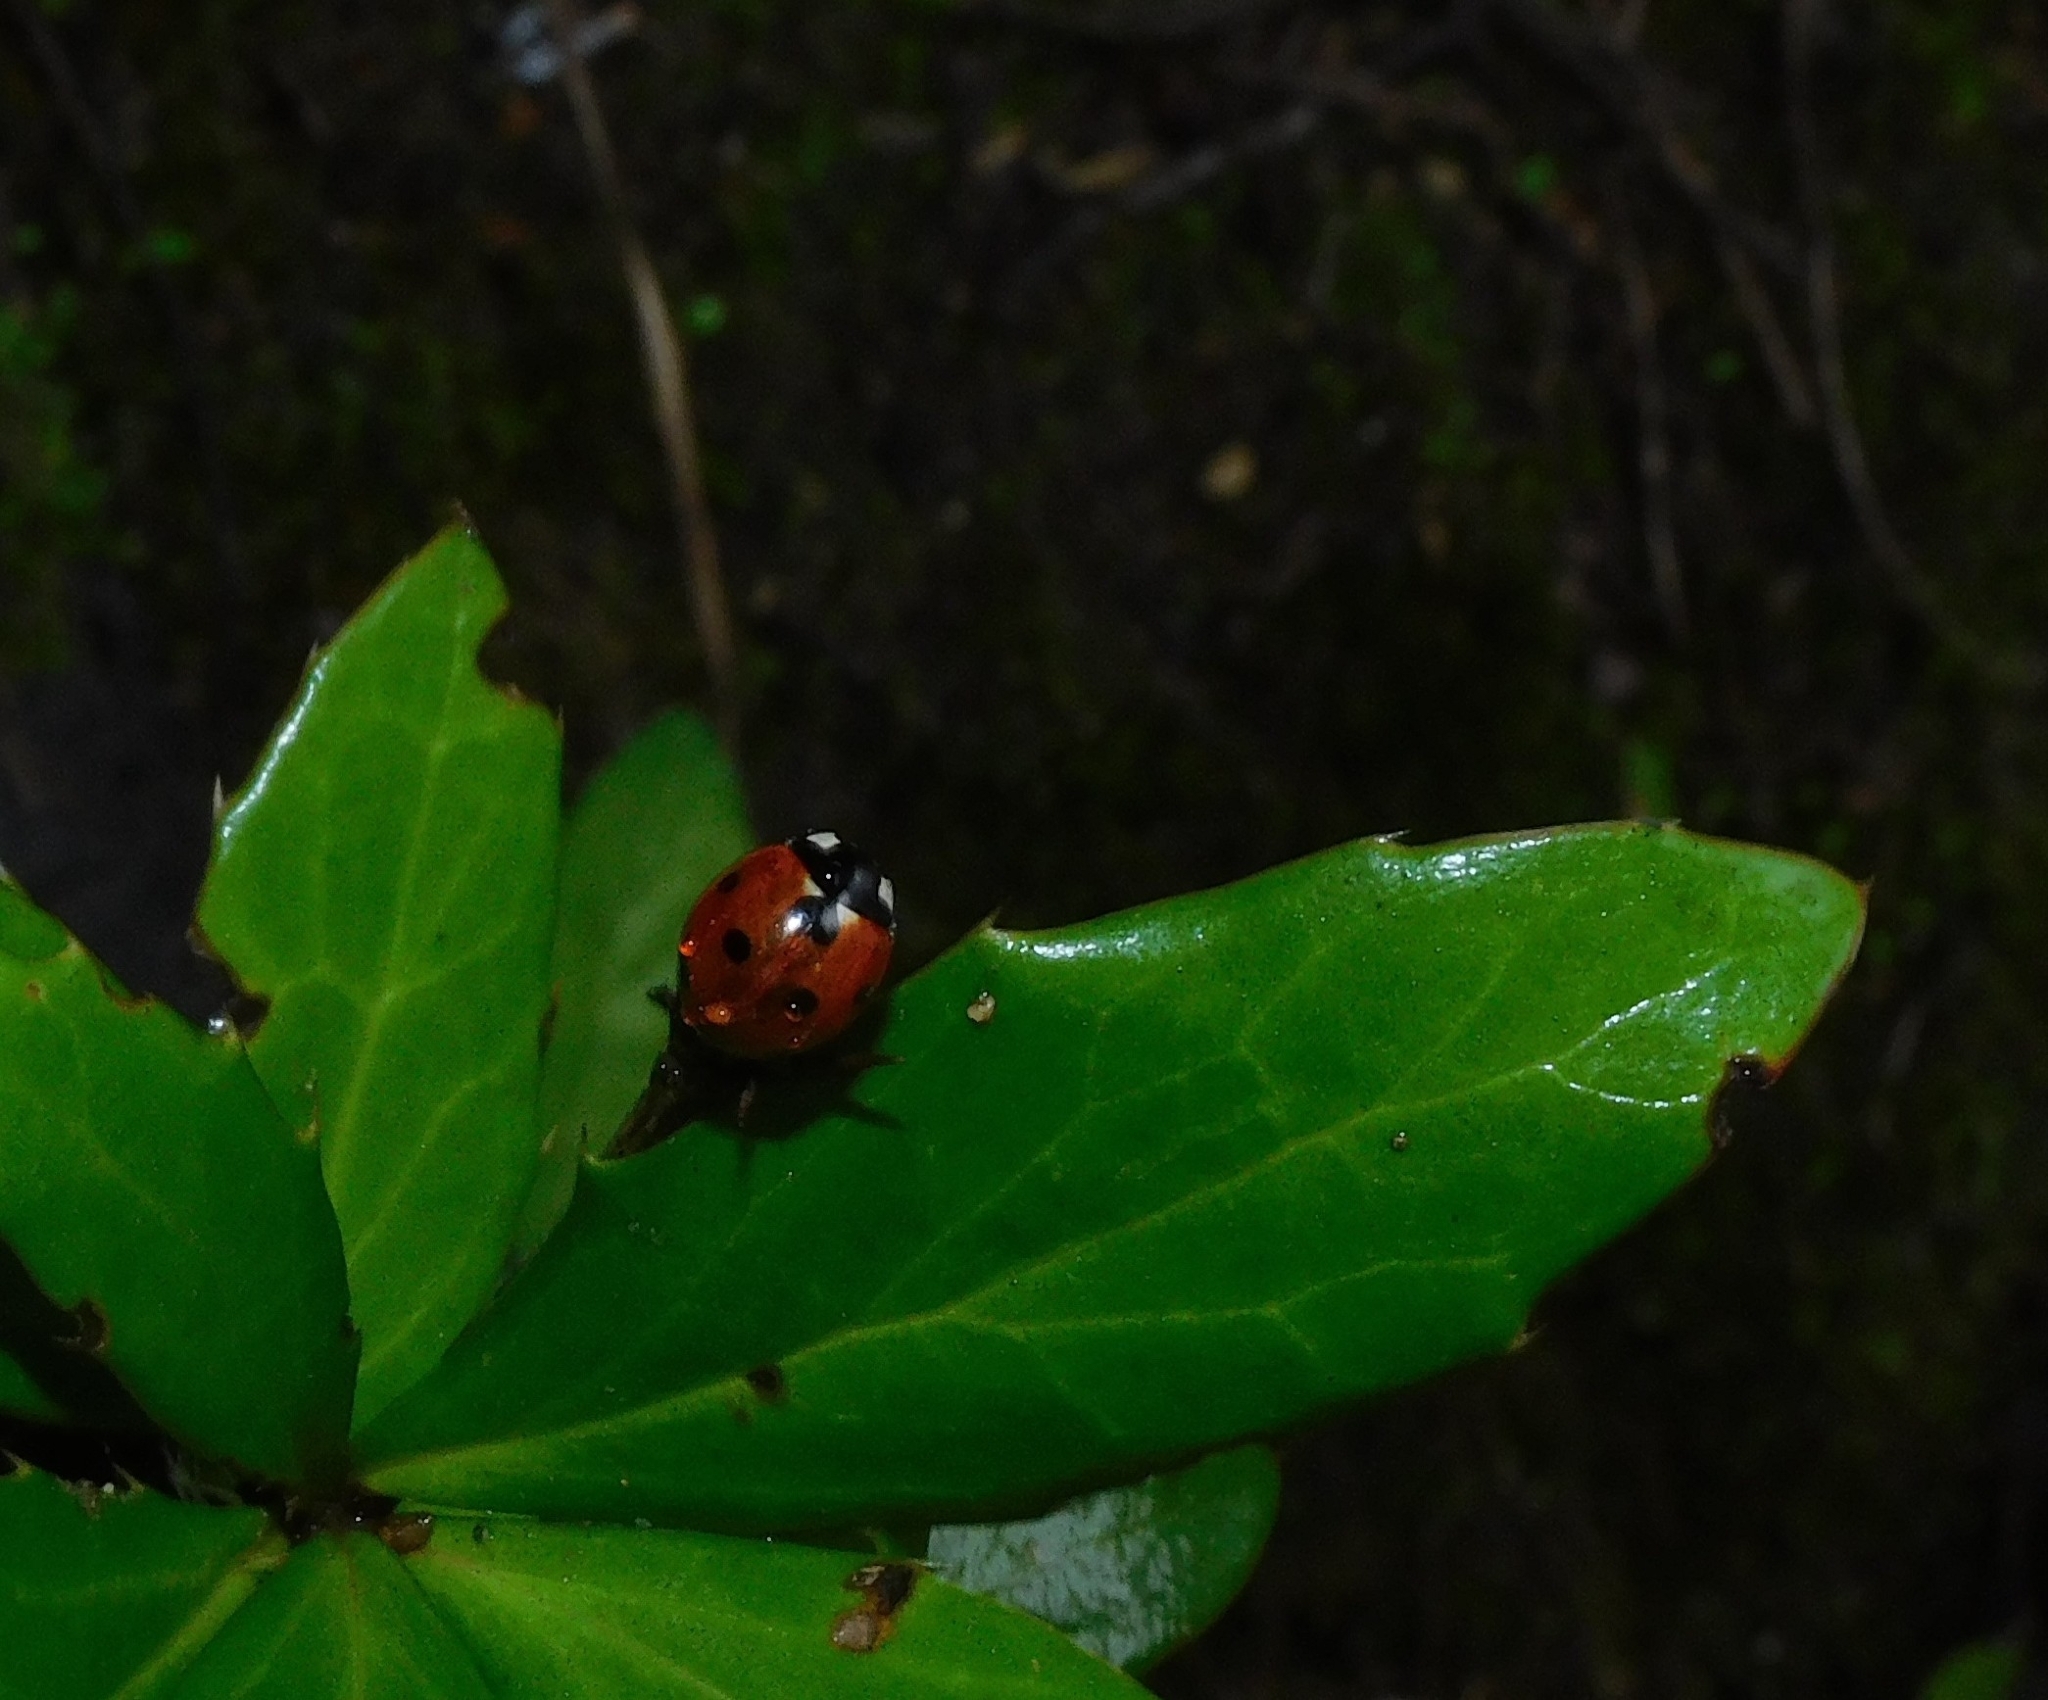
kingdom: Animalia
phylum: Arthropoda
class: Insecta
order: Coleoptera
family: Coccinellidae
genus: Coccinella
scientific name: Coccinella septempunctata
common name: Sevenspotted lady beetle
